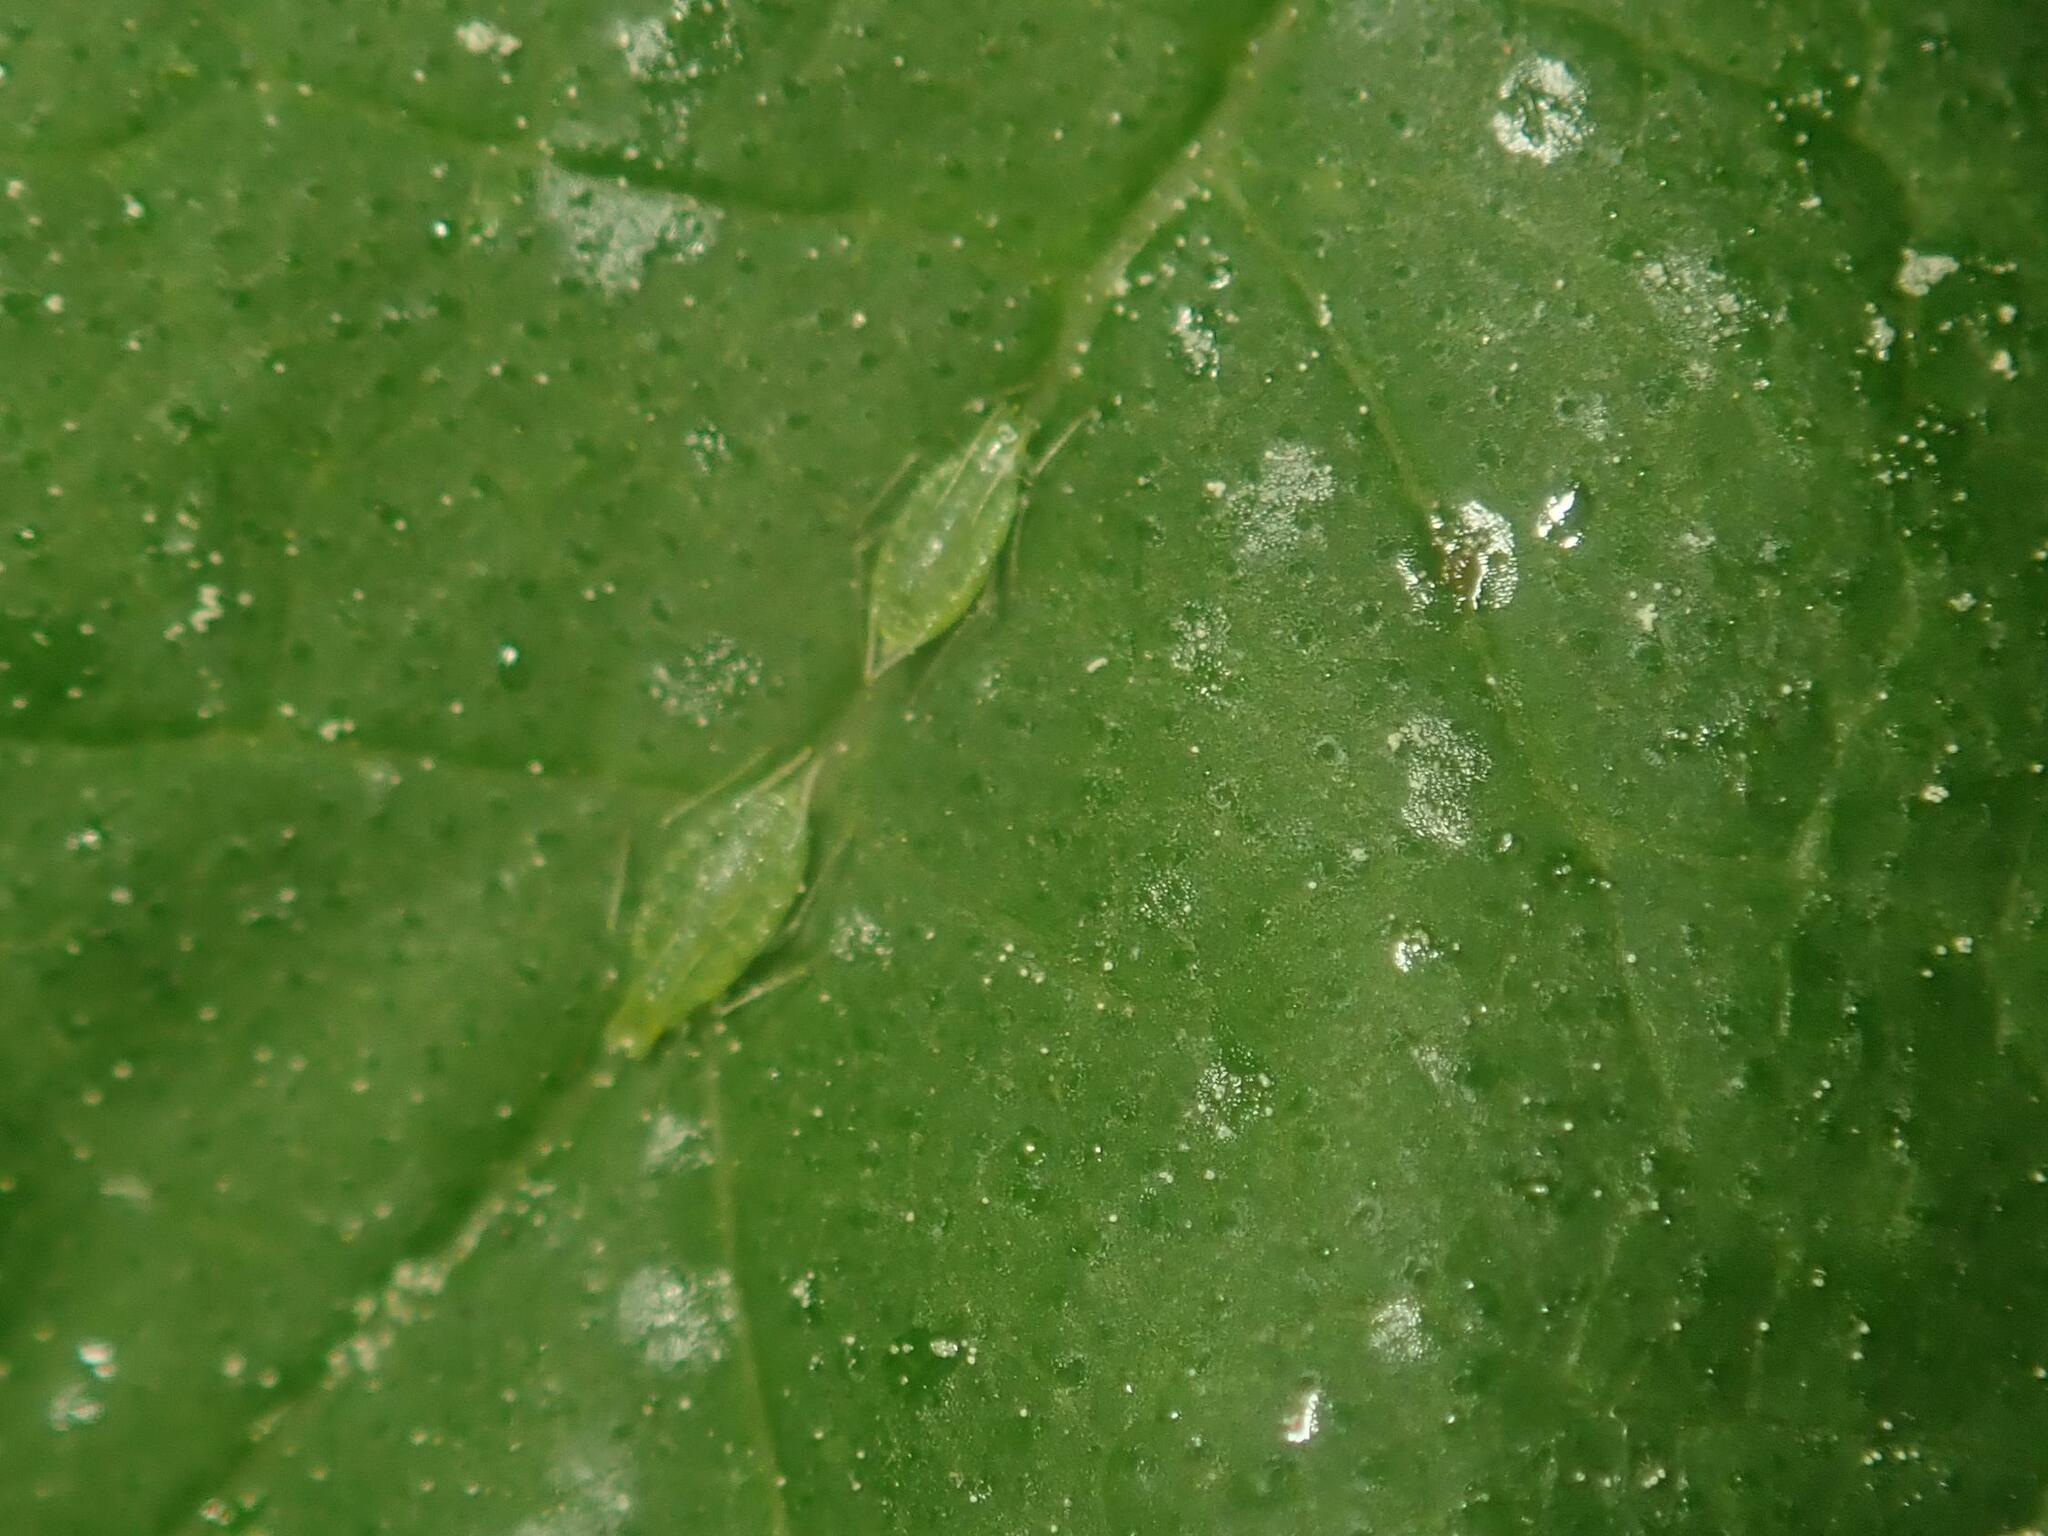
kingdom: Animalia
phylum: Arthropoda
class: Insecta
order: Hemiptera
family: Aphididae
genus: Phorodon
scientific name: Phorodon humuli
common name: Hop aphid
